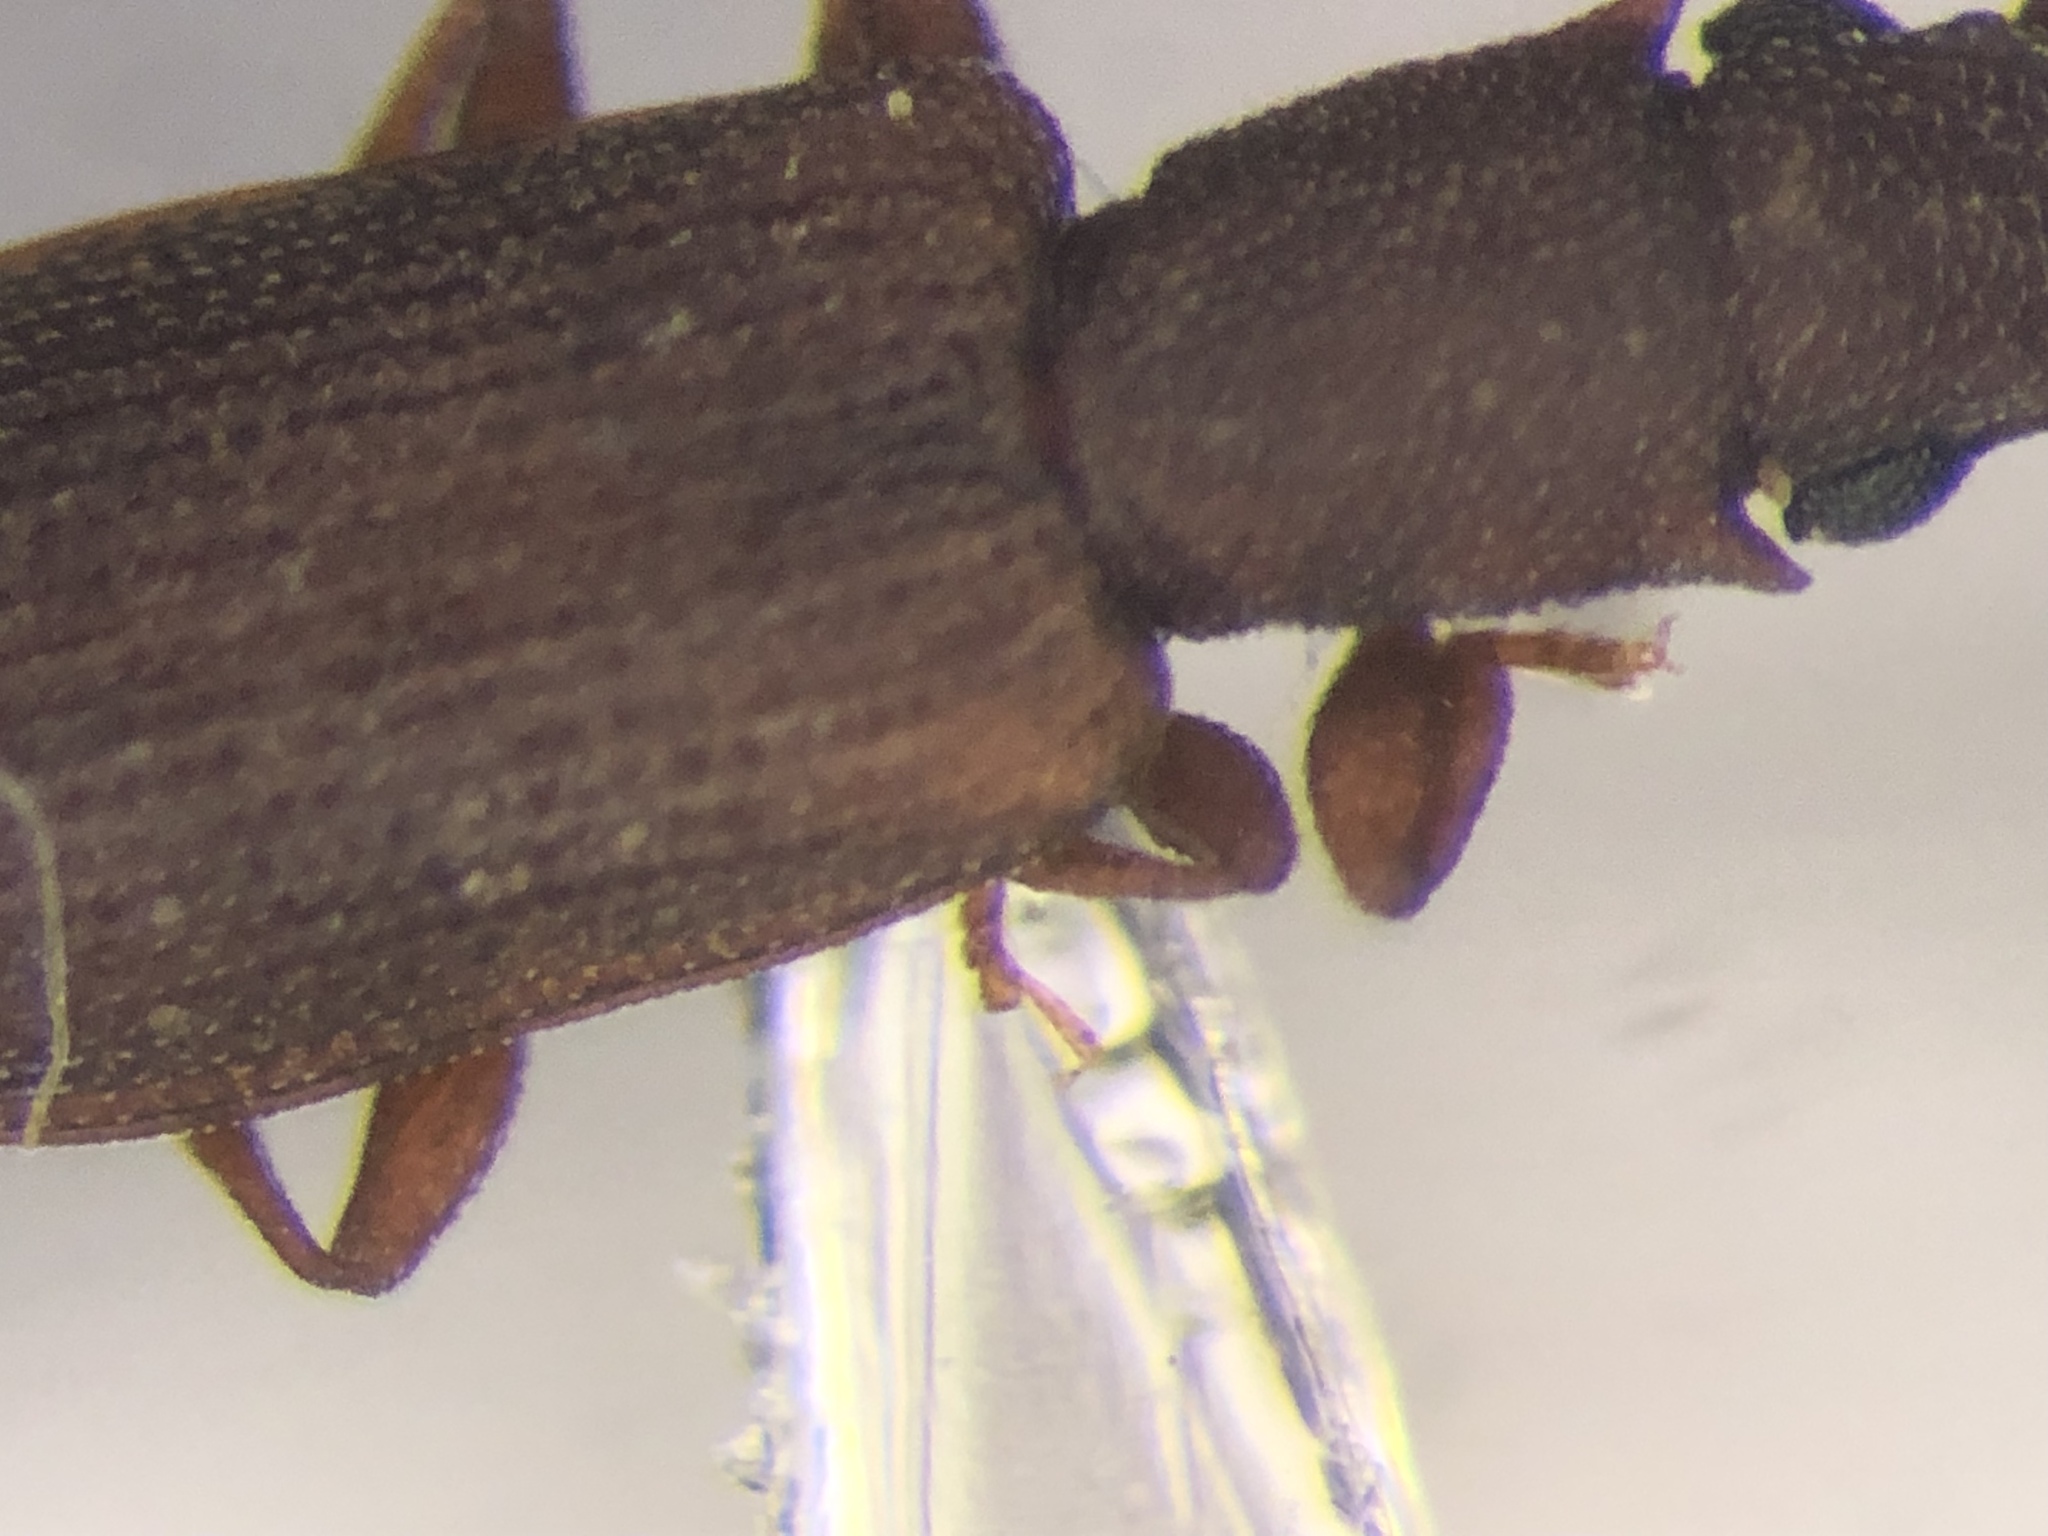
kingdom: Animalia
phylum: Arthropoda
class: Insecta
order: Coleoptera
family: Silvanidae
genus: Silvanoprus
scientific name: Silvanoprus angusticollis
